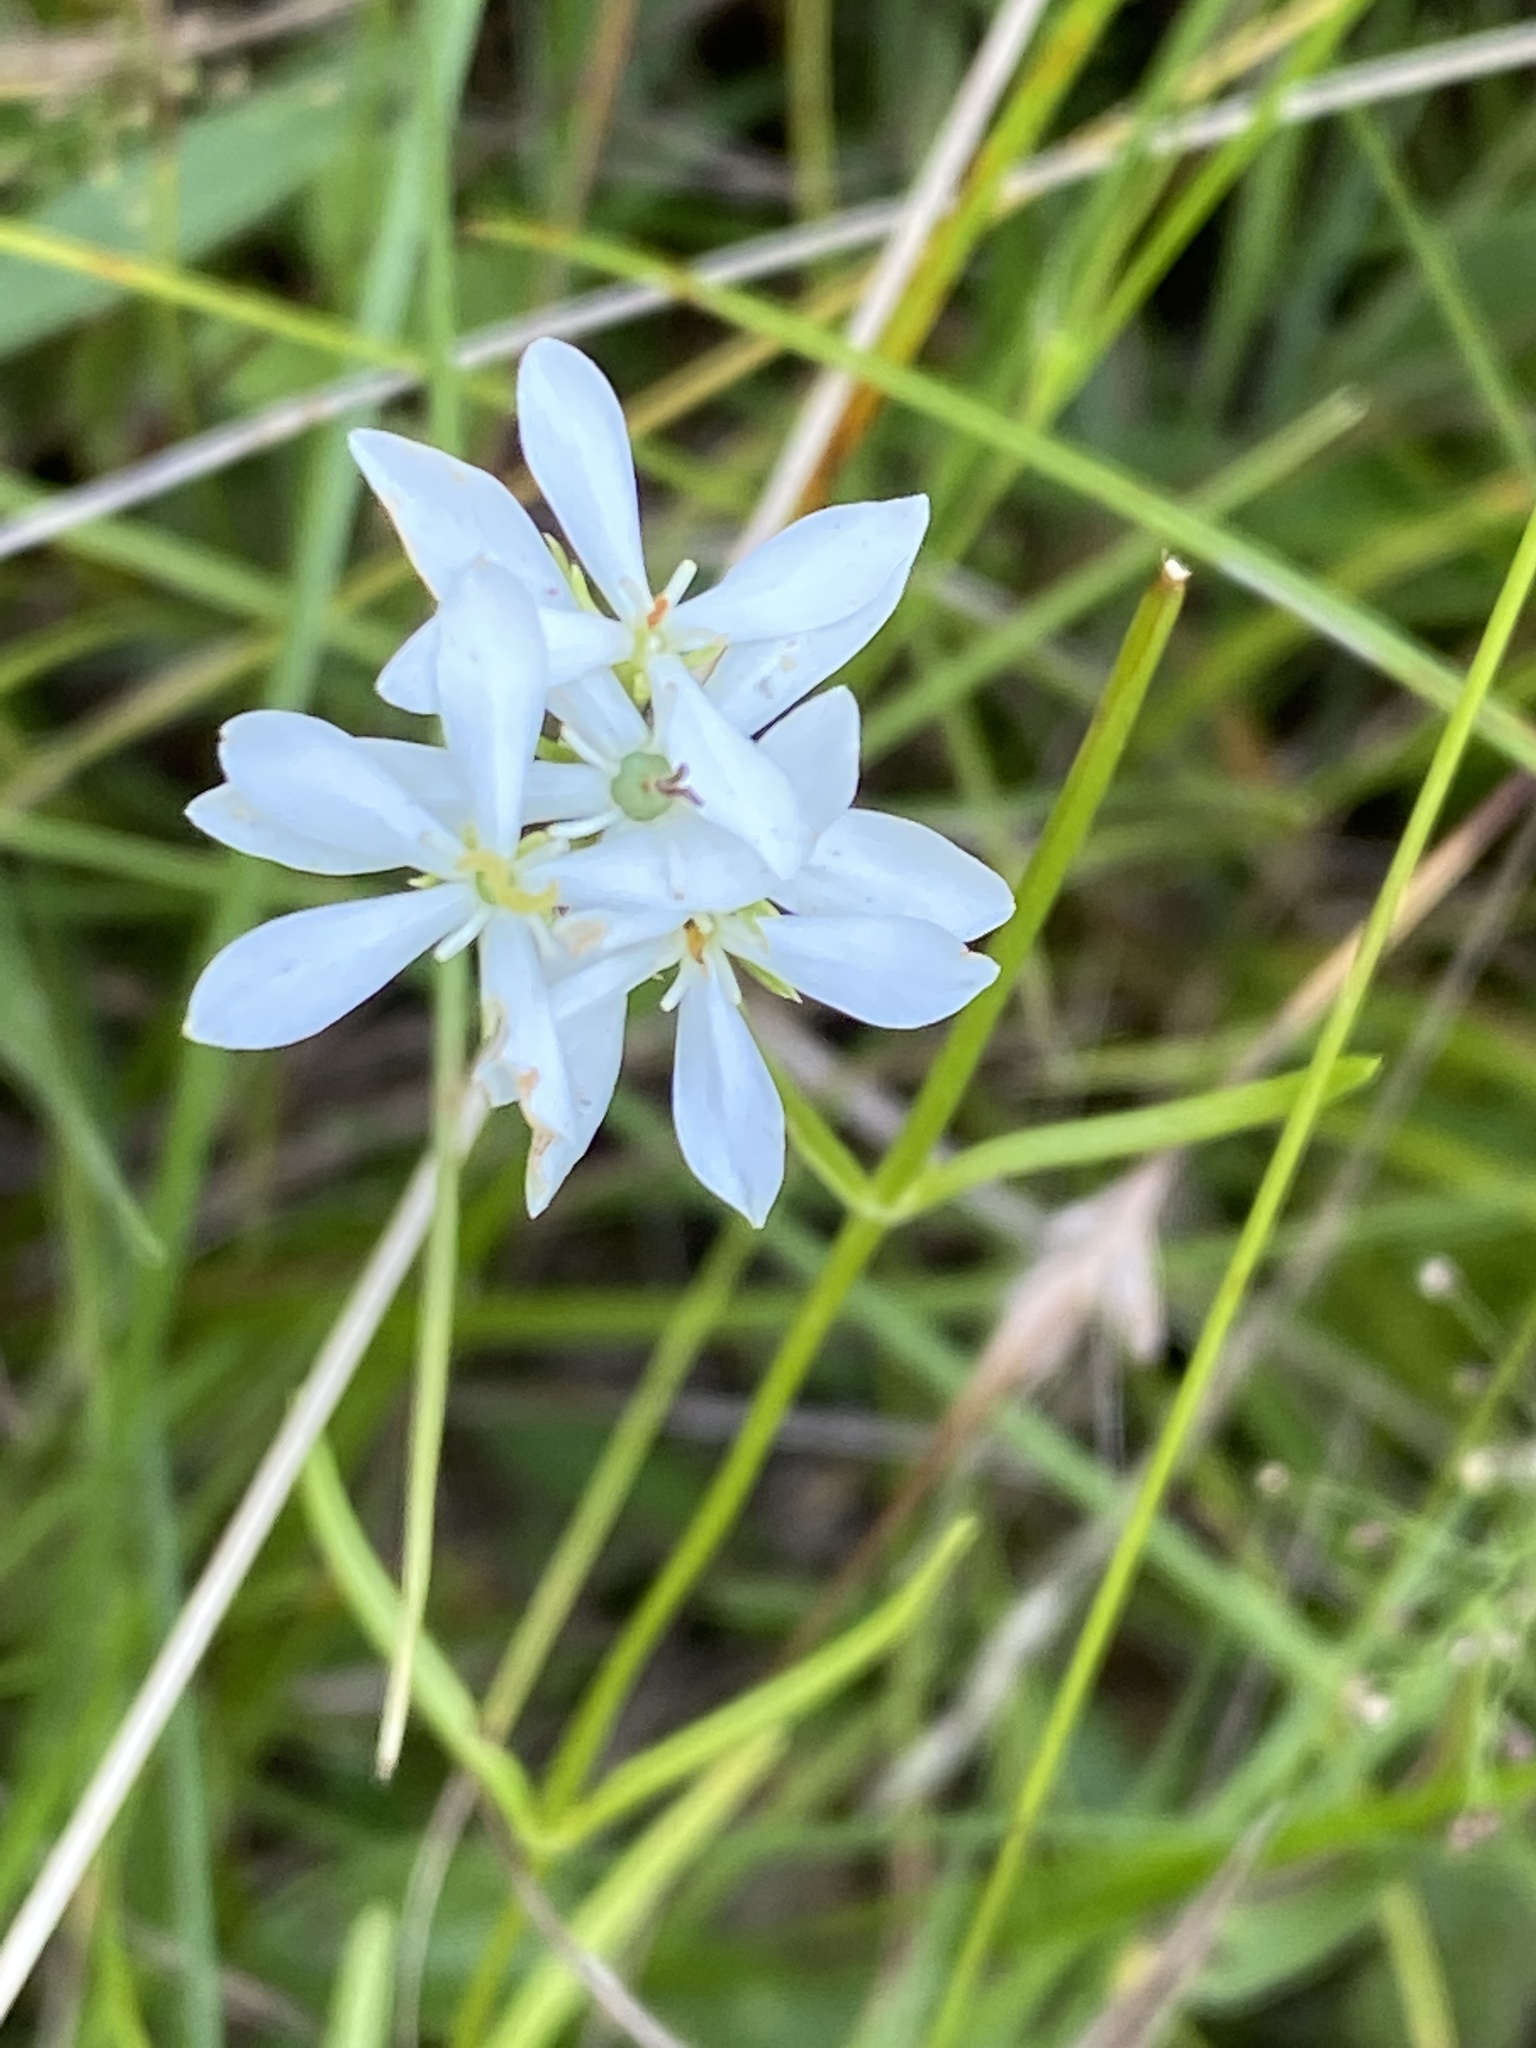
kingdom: Plantae
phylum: Tracheophyta
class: Magnoliopsida
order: Gentianales
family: Gentianaceae
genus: Sabatia
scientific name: Sabatia quadrangula
